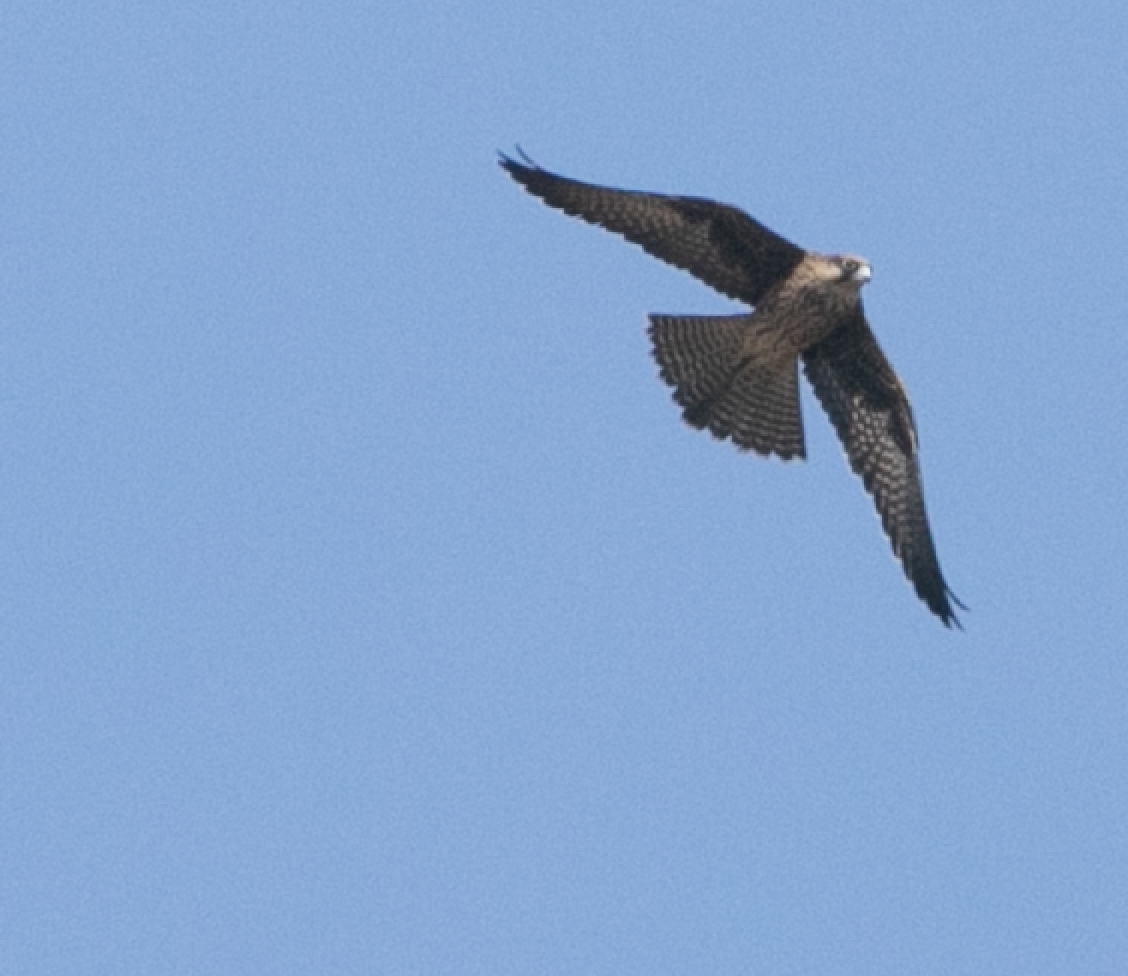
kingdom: Animalia
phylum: Chordata
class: Aves
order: Falconiformes
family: Falconidae
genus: Falco
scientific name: Falco eleonorae
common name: Eleonora's falcon
